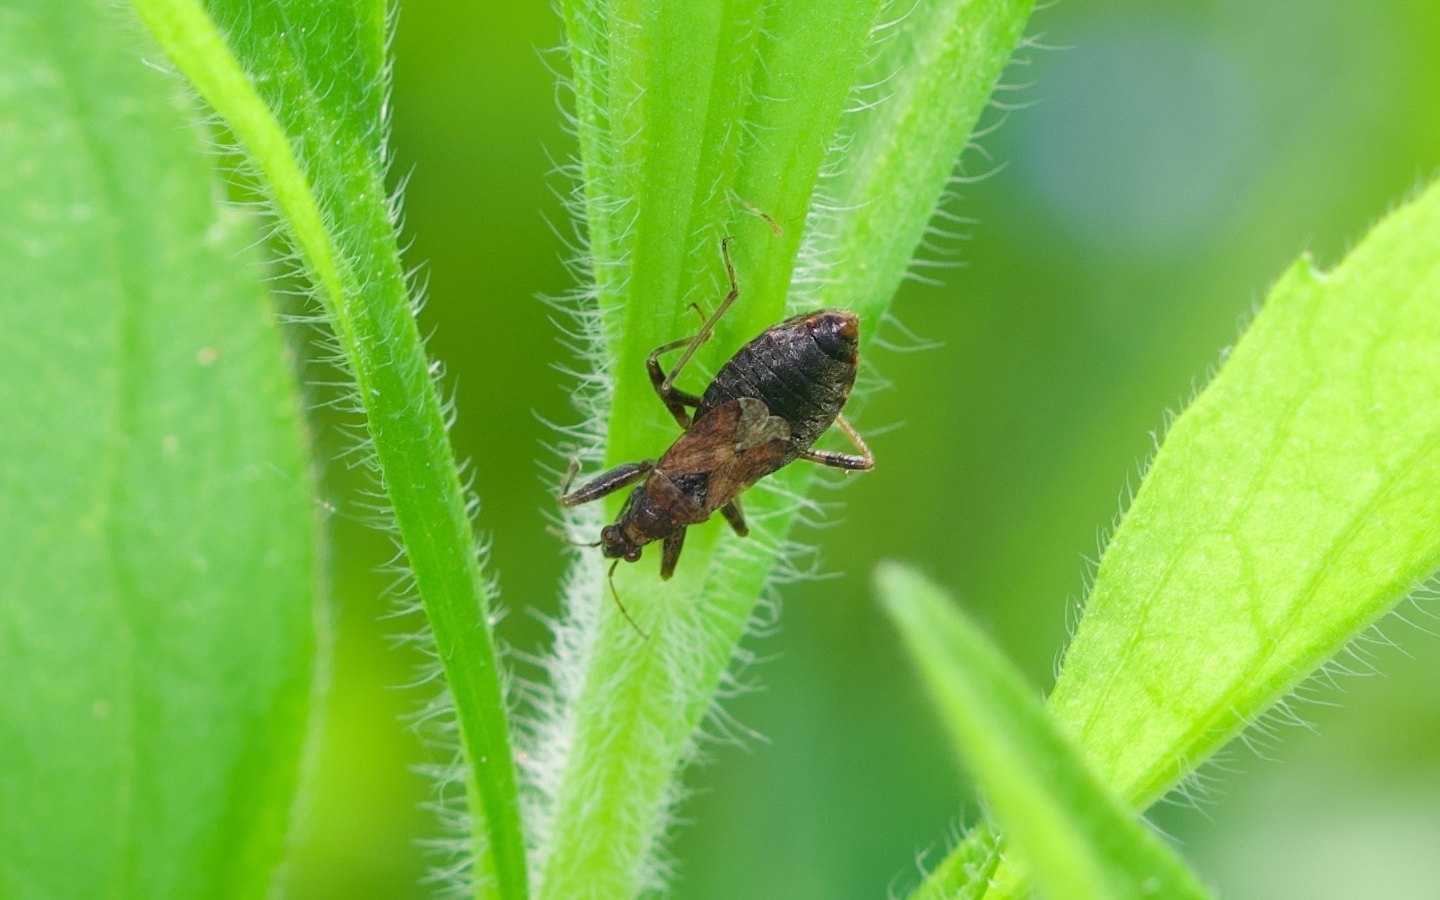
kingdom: Animalia
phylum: Arthropoda
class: Insecta
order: Hemiptera
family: Nabidae
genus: Himacerus
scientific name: Himacerus mirmicoides
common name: Ant damsel bug
